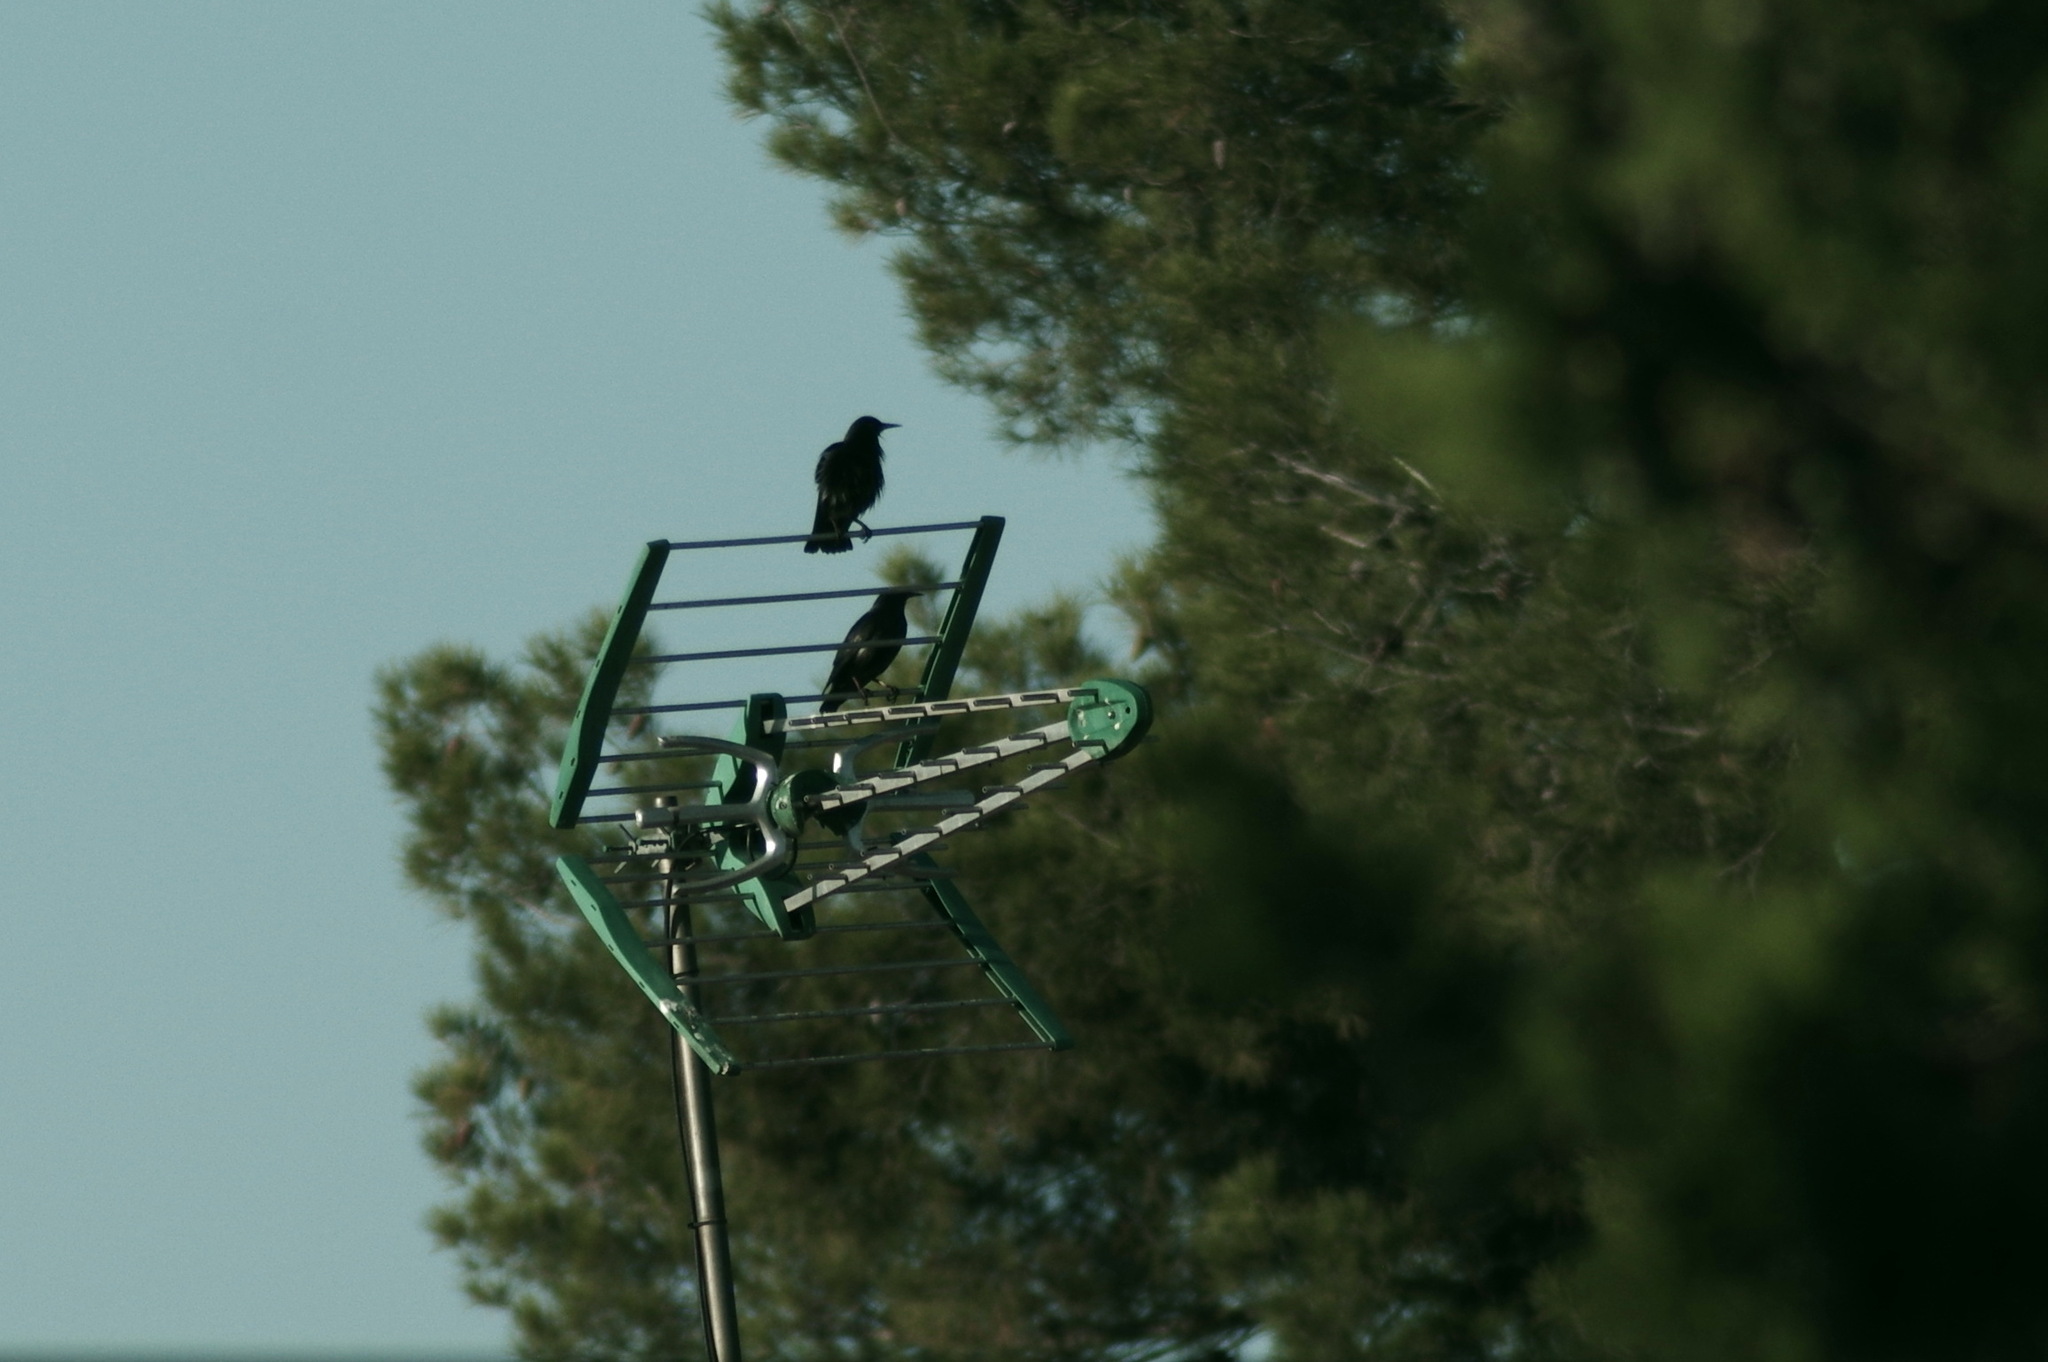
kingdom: Animalia
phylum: Chordata
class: Aves
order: Passeriformes
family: Sturnidae
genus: Sturnus
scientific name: Sturnus unicolor
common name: Spotless starling
